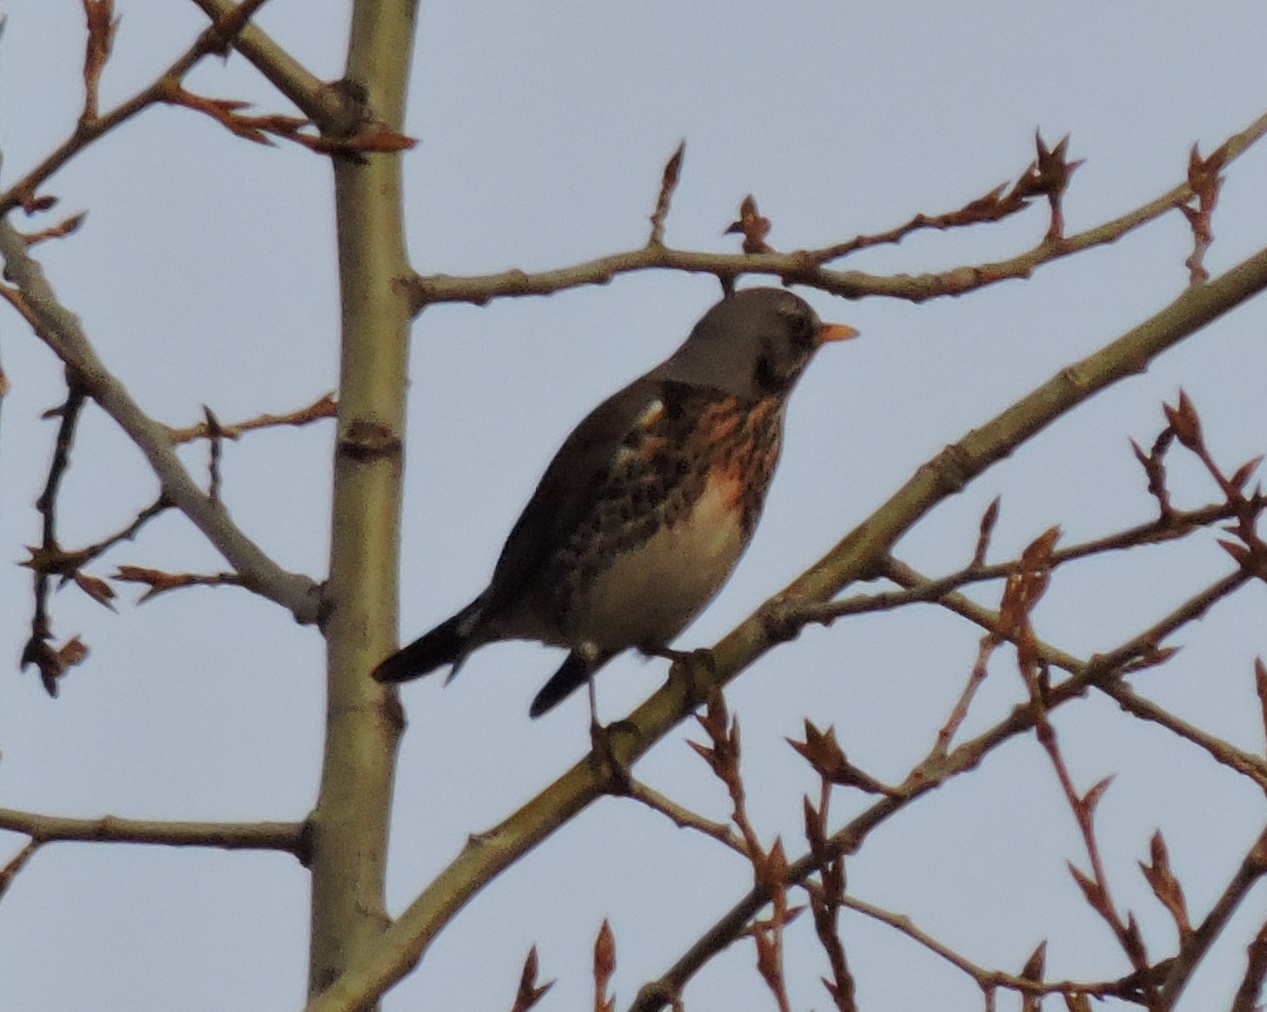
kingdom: Animalia
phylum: Chordata
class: Aves
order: Passeriformes
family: Turdidae
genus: Turdus
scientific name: Turdus pilaris
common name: Fieldfare
